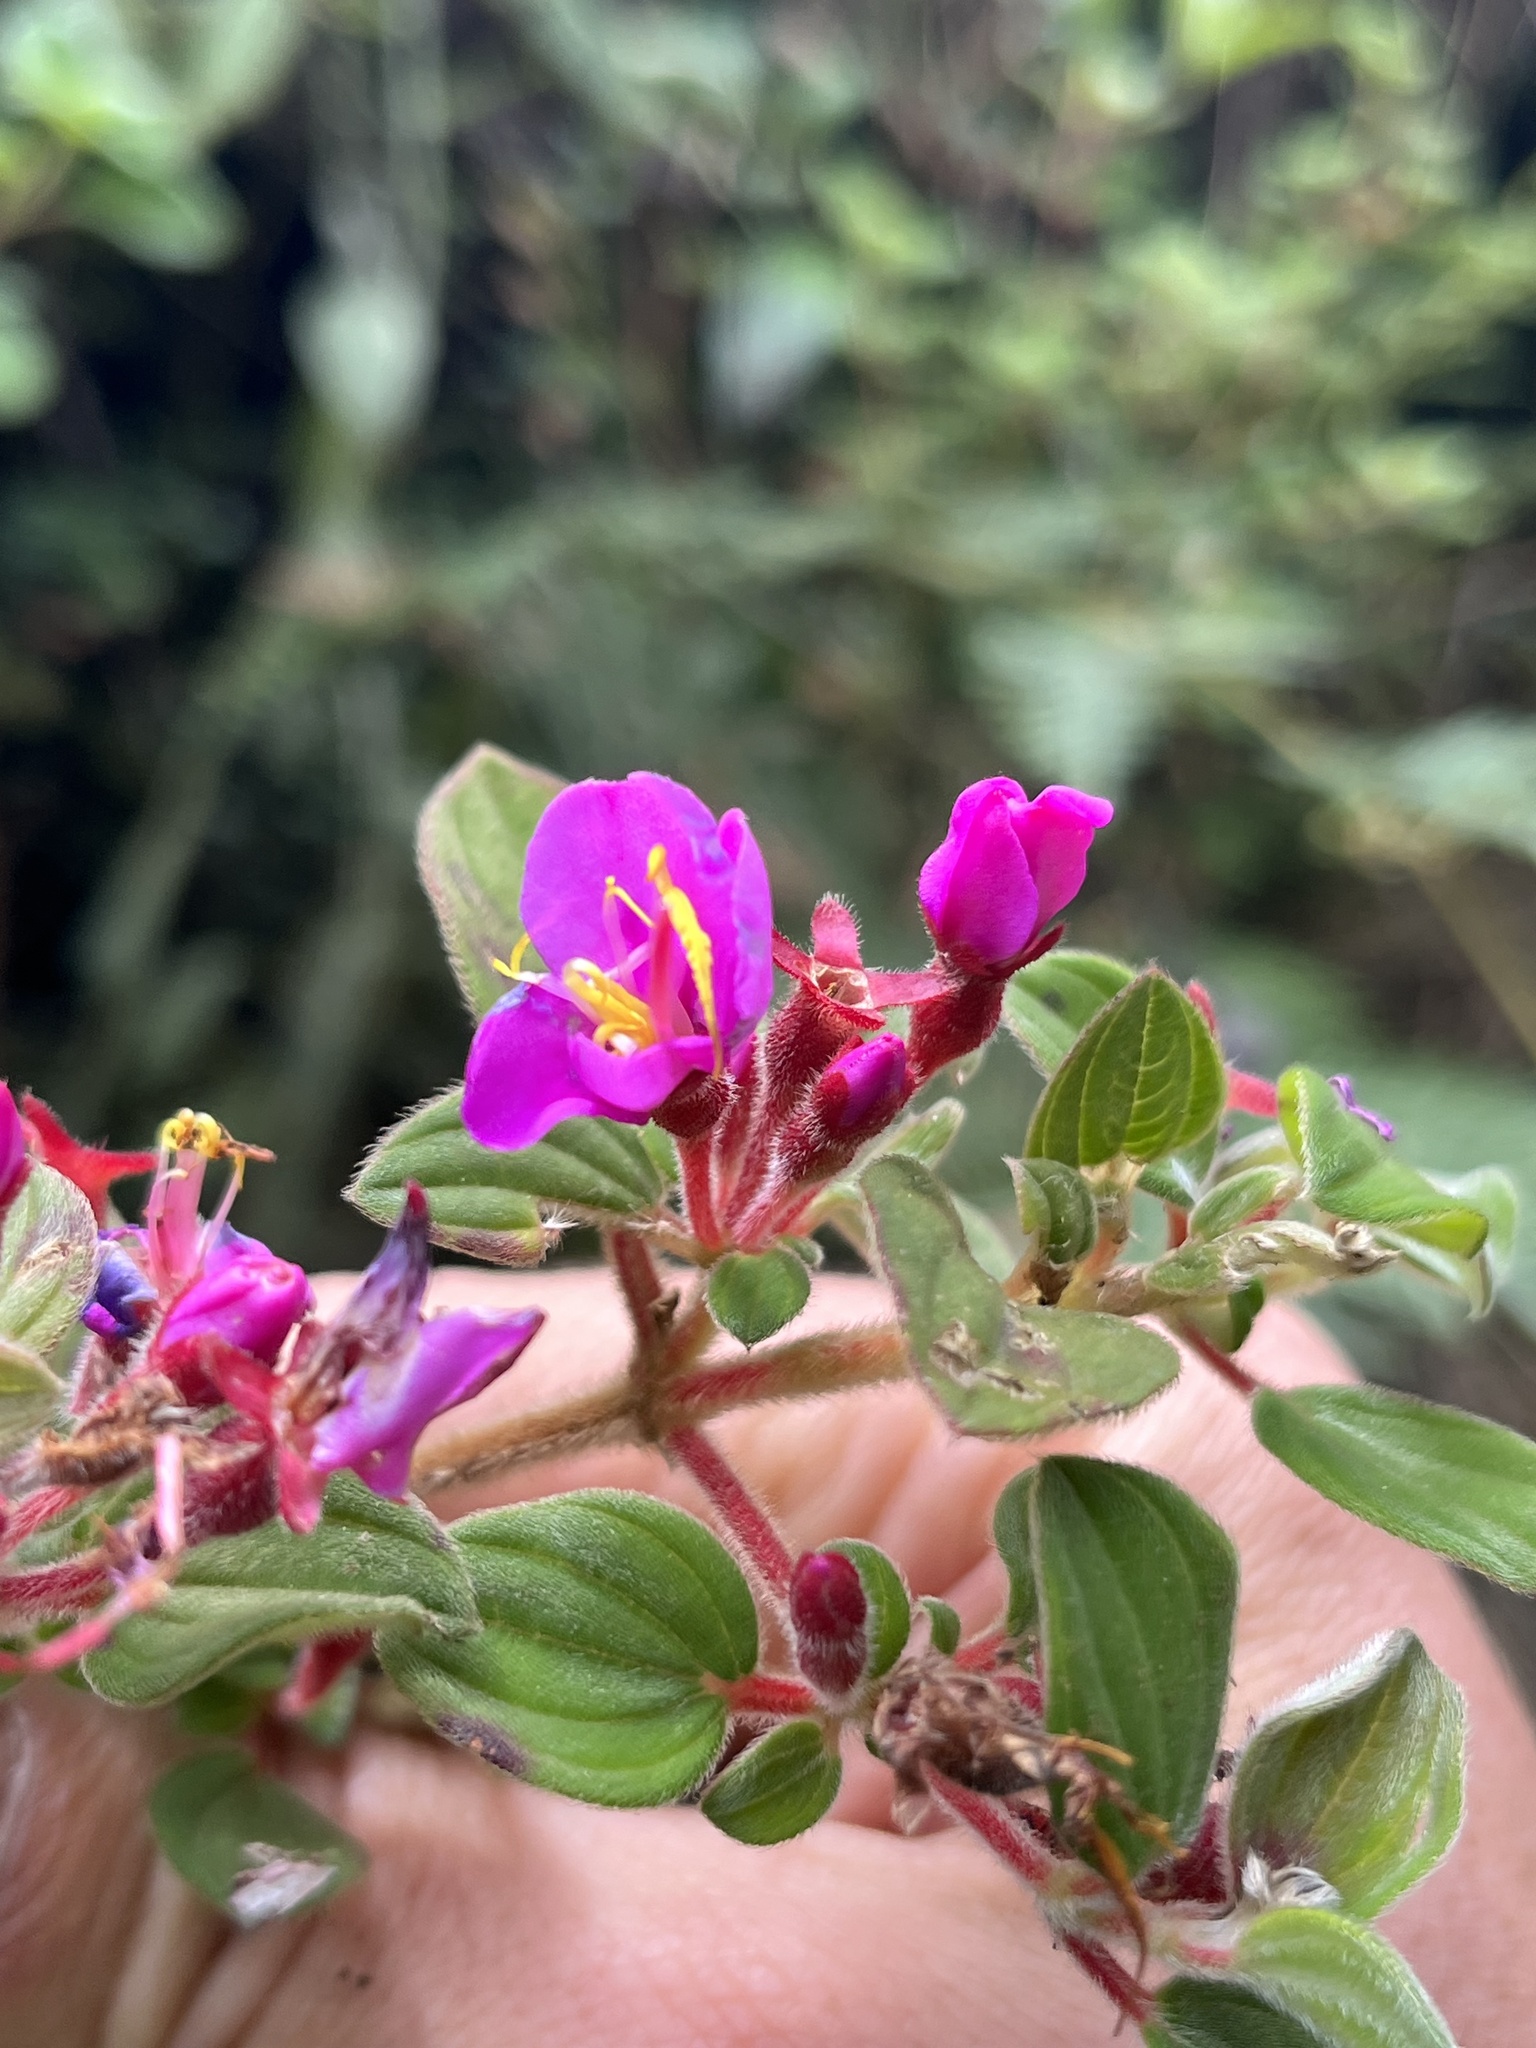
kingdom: Plantae
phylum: Tracheophyta
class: Magnoliopsida
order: Myrtales
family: Melastomataceae
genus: Monochaetum
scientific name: Monochaetum bonplandii
